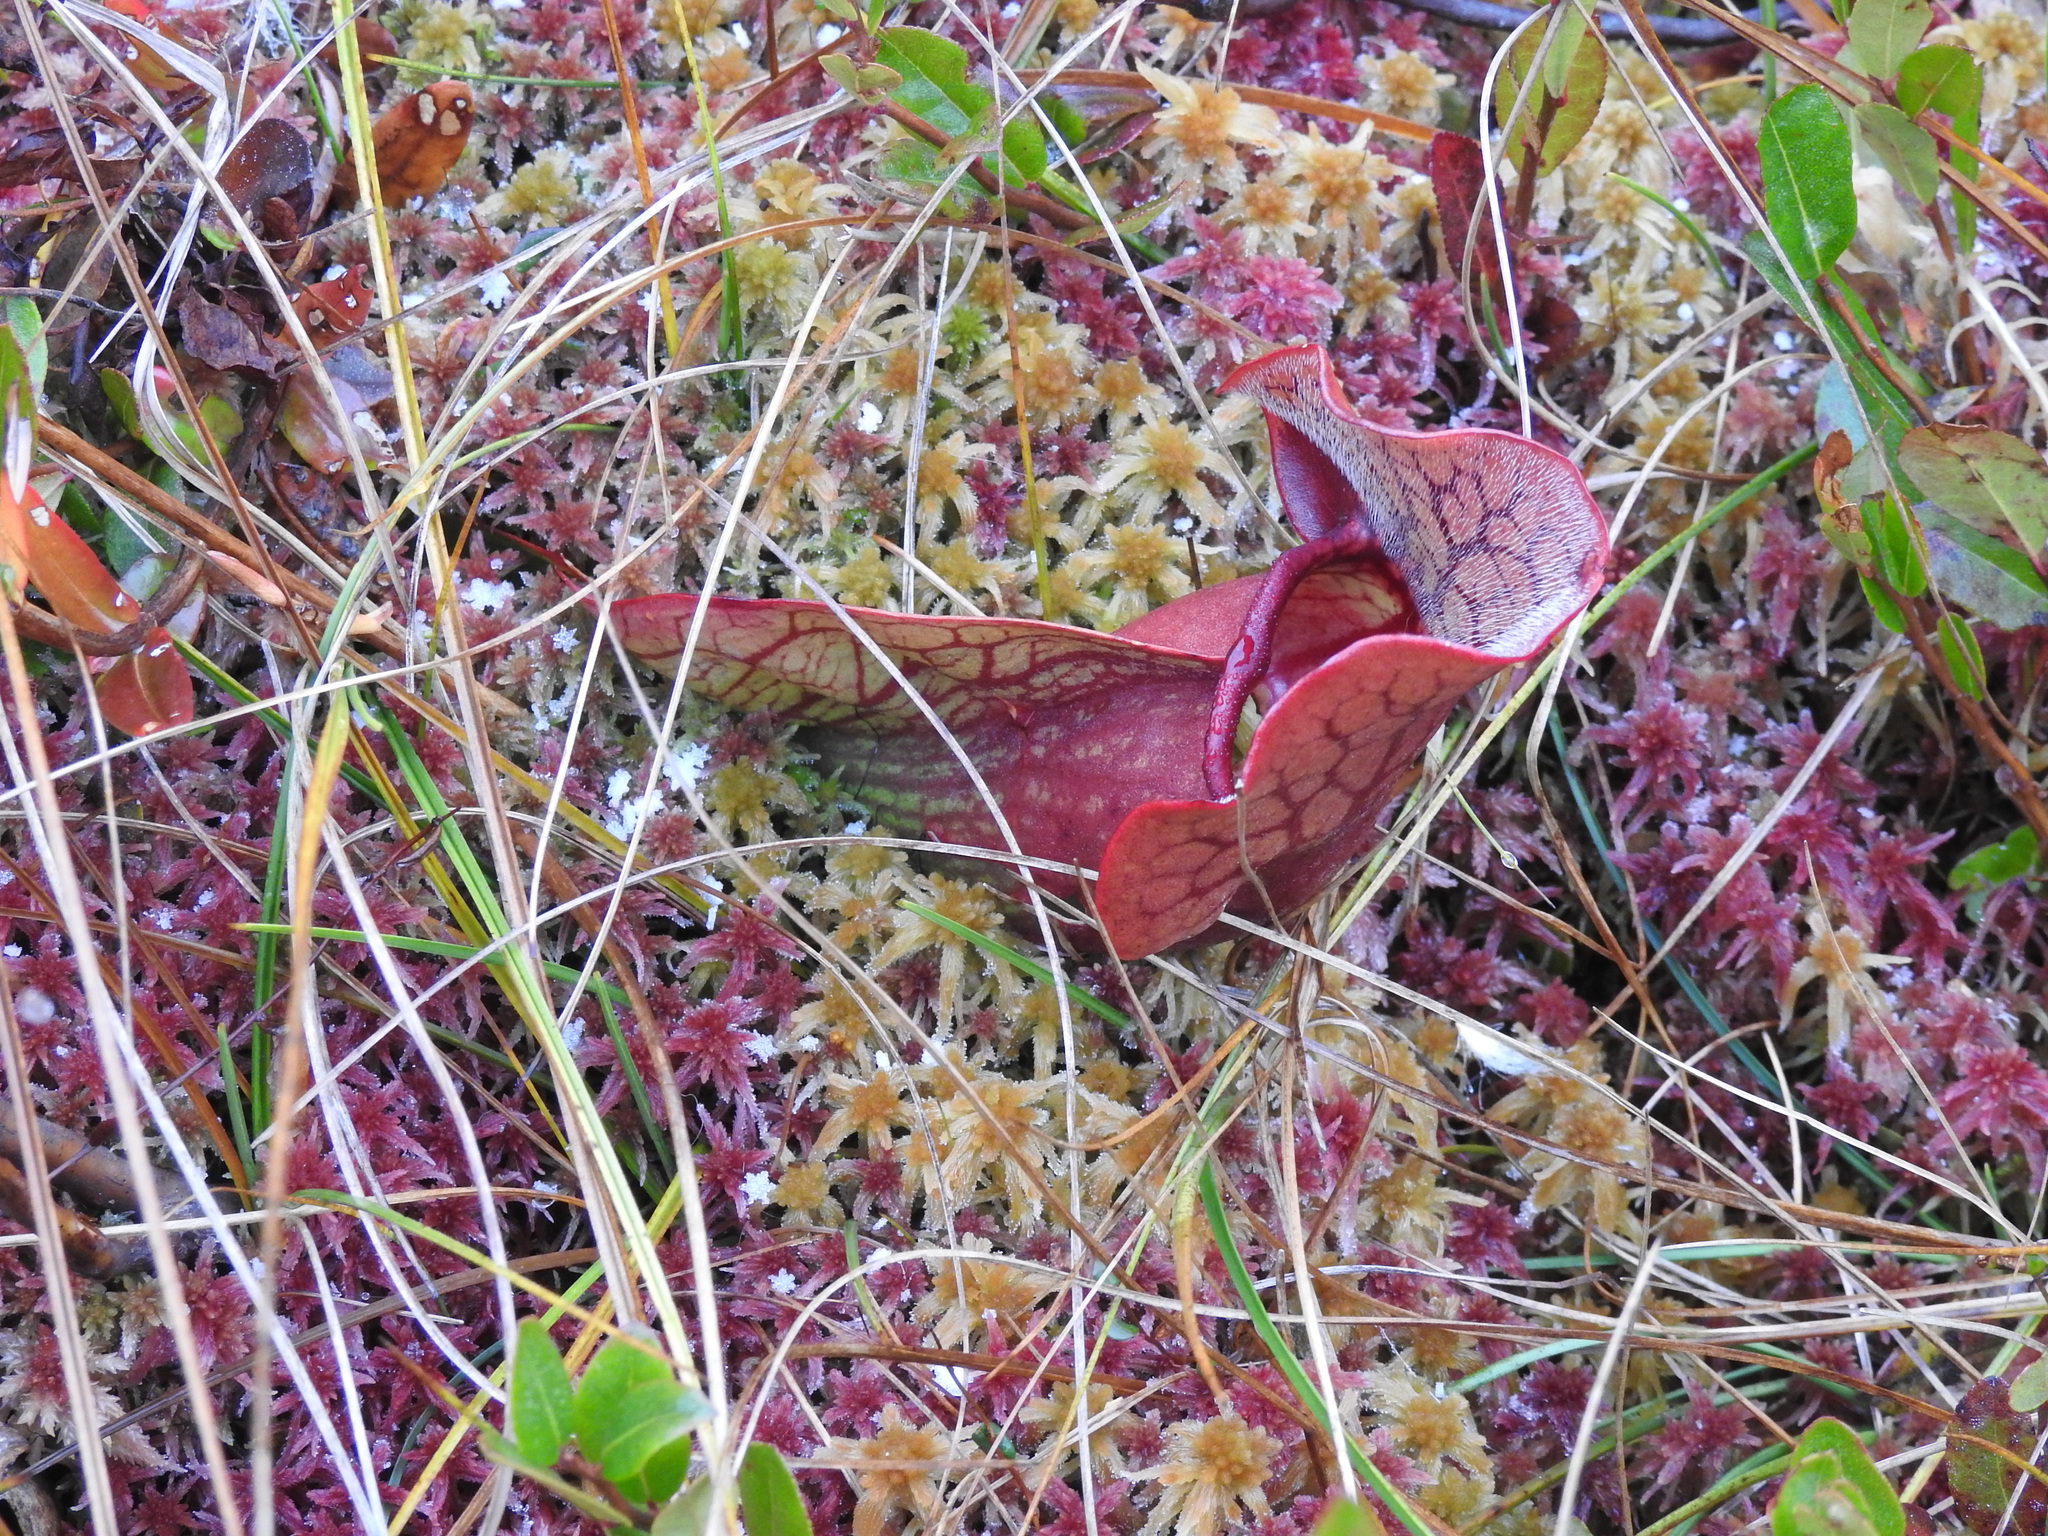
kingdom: Plantae
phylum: Tracheophyta
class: Magnoliopsida
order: Ericales
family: Sarraceniaceae
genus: Sarracenia
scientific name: Sarracenia purpurea
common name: Pitcherplant
